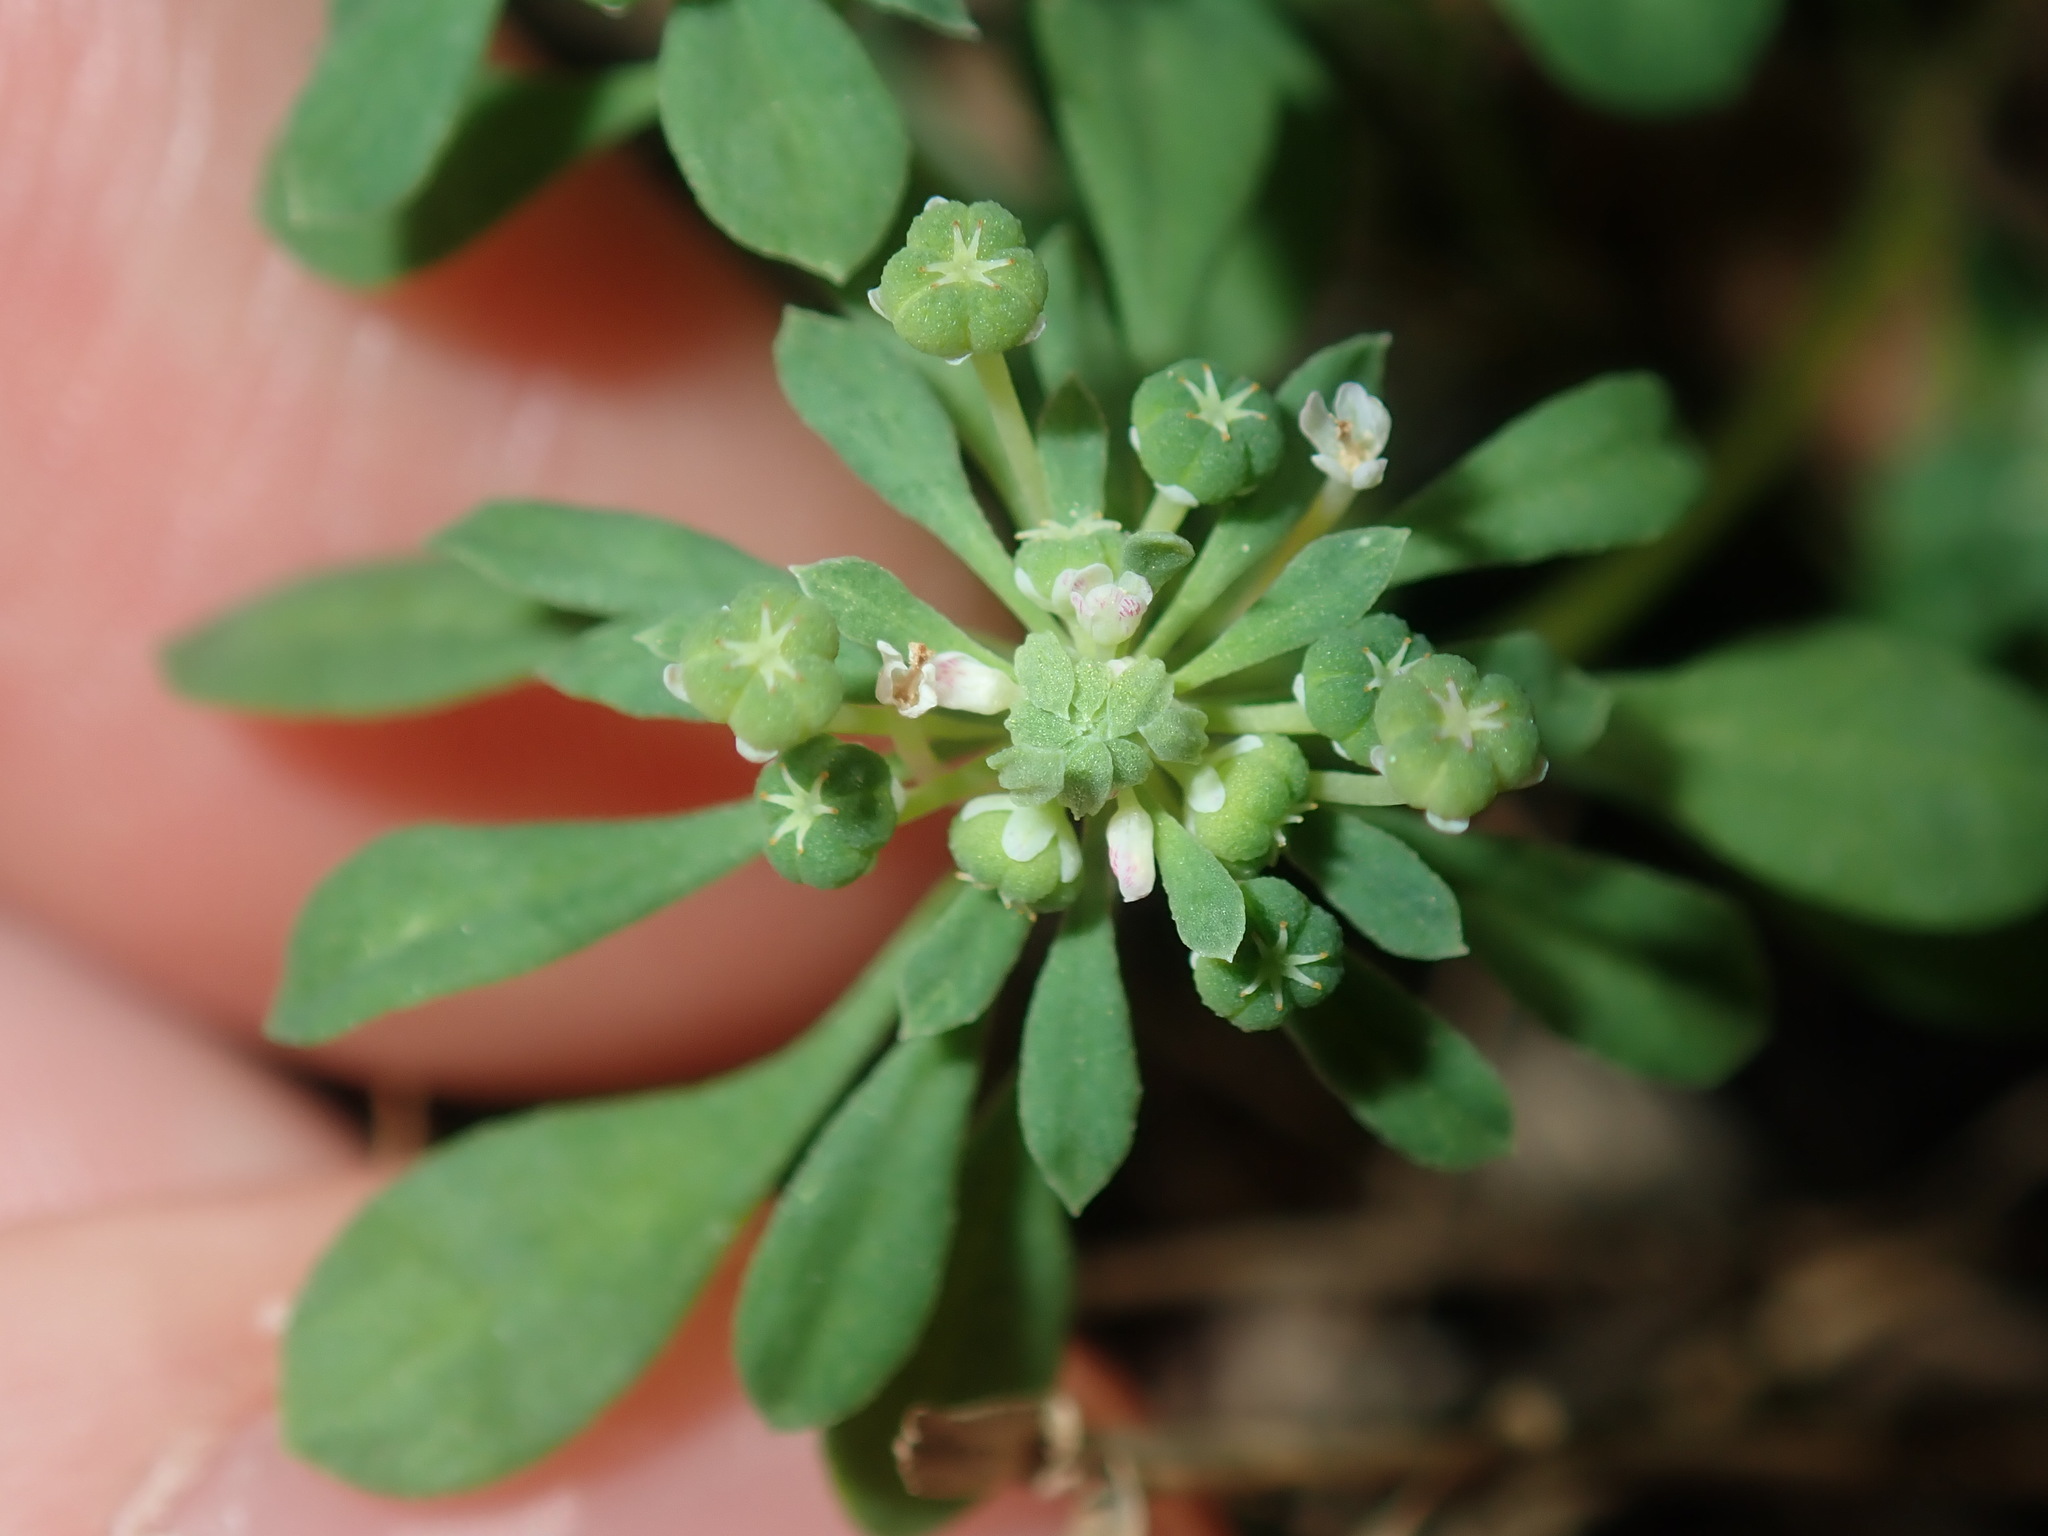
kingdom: Plantae
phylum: Tracheophyta
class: Magnoliopsida
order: Malpighiales
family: Phyllanthaceae
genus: Poranthera
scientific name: Poranthera microphylla
